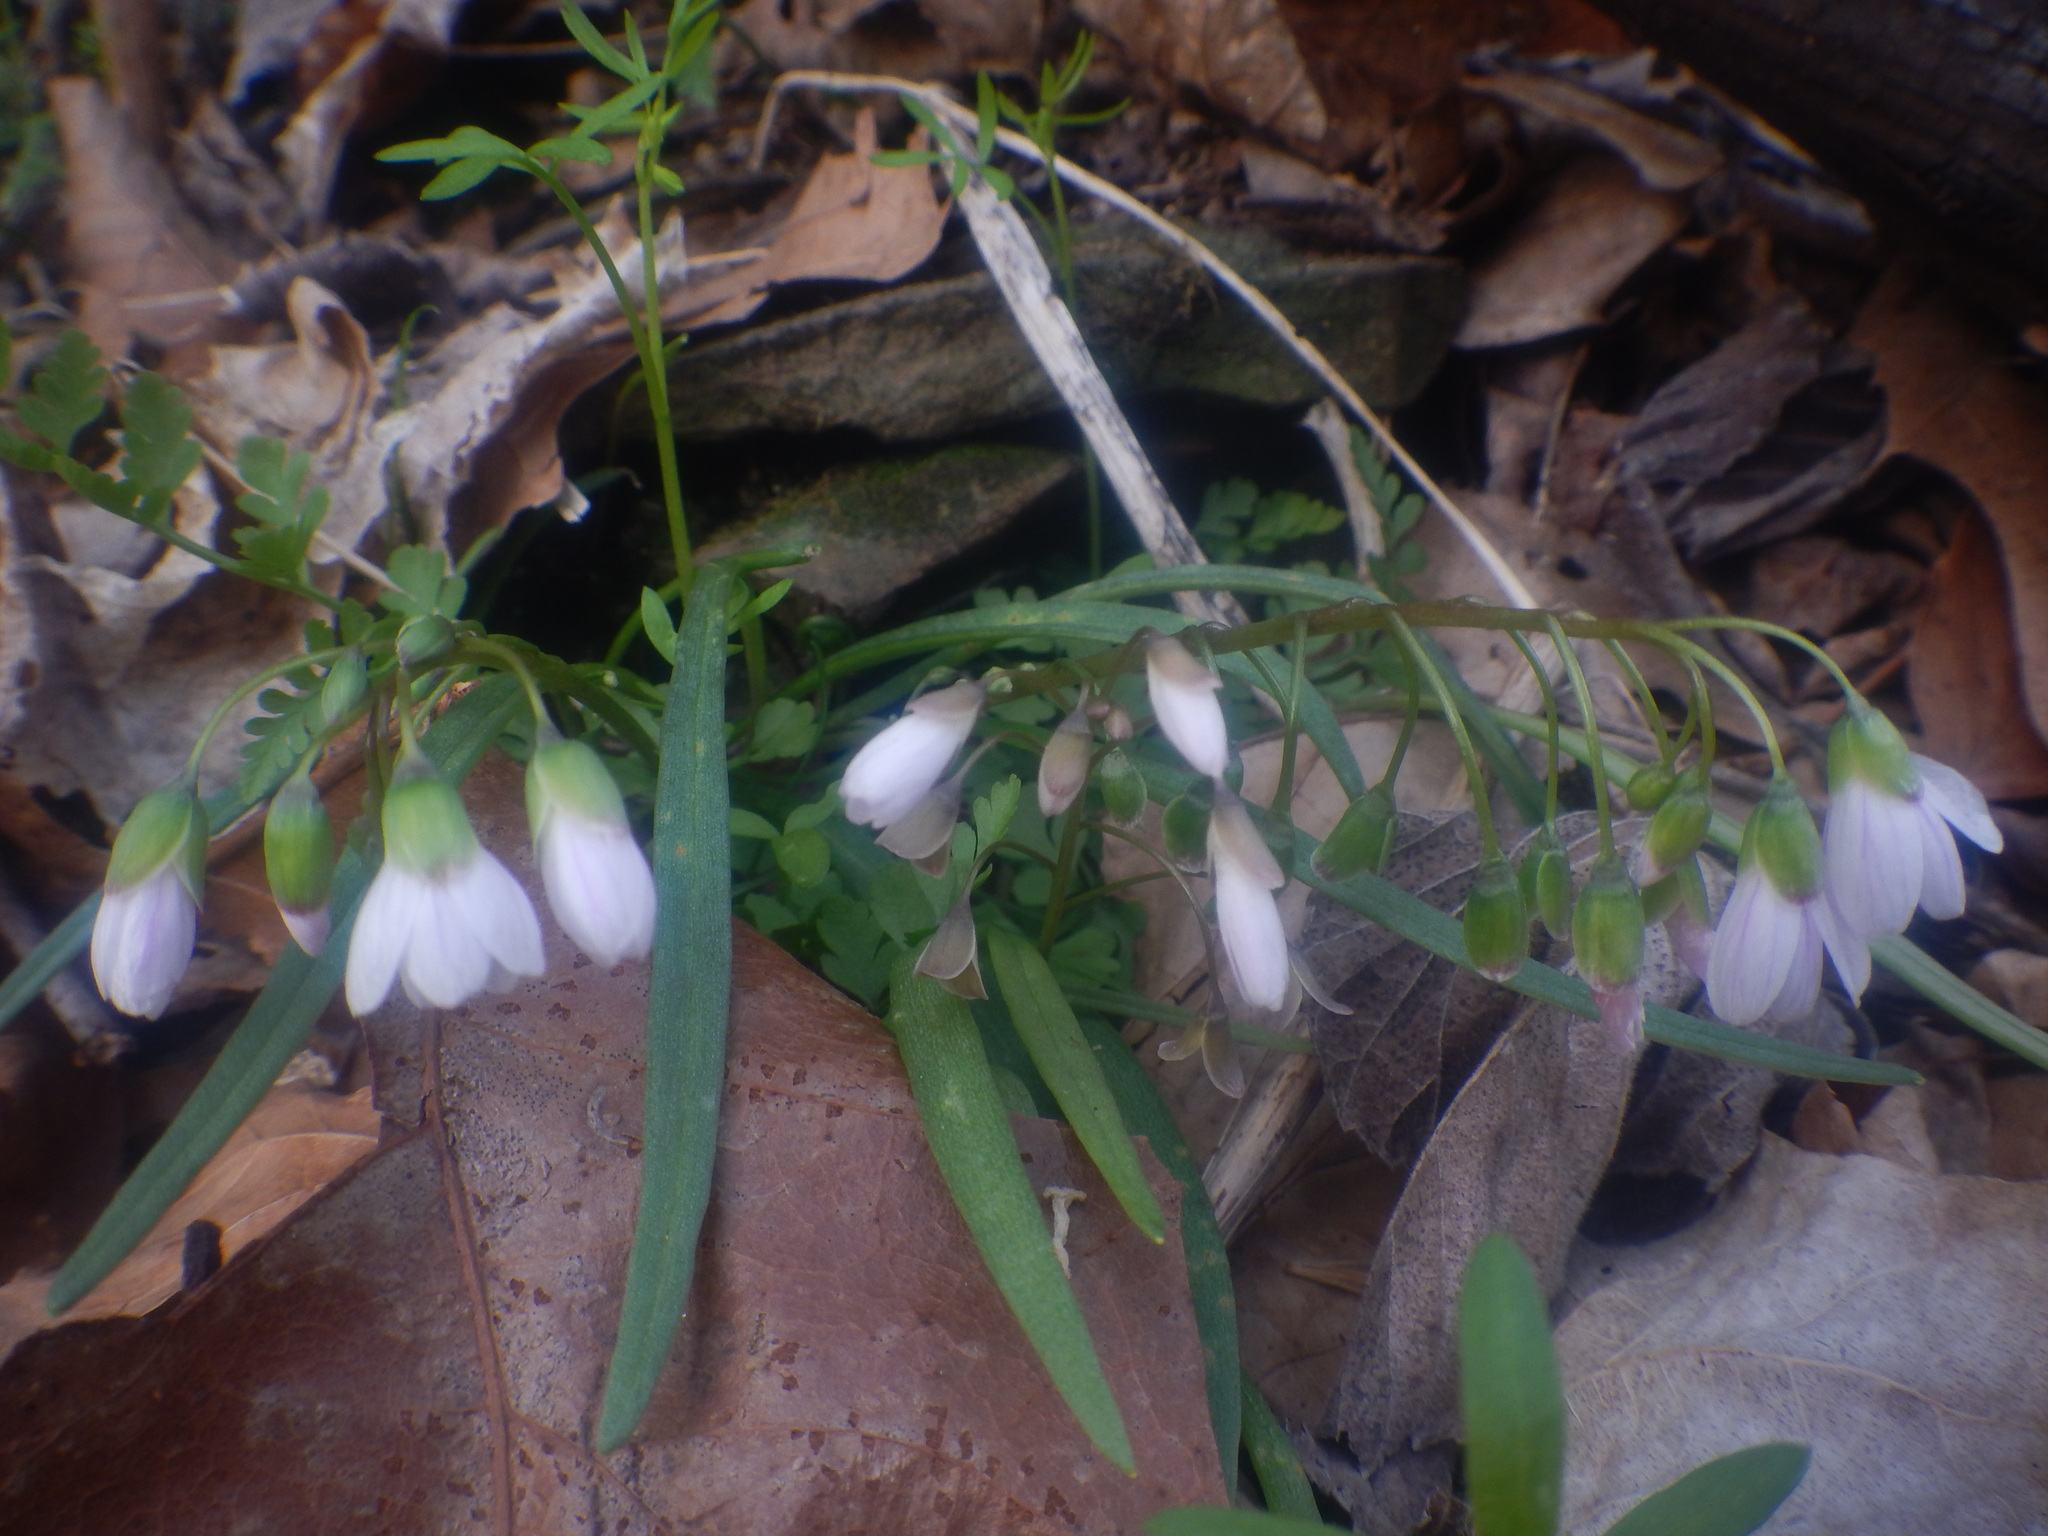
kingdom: Plantae
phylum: Tracheophyta
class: Magnoliopsida
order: Caryophyllales
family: Montiaceae
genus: Claytonia
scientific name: Claytonia virginica
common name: Virginia springbeauty
